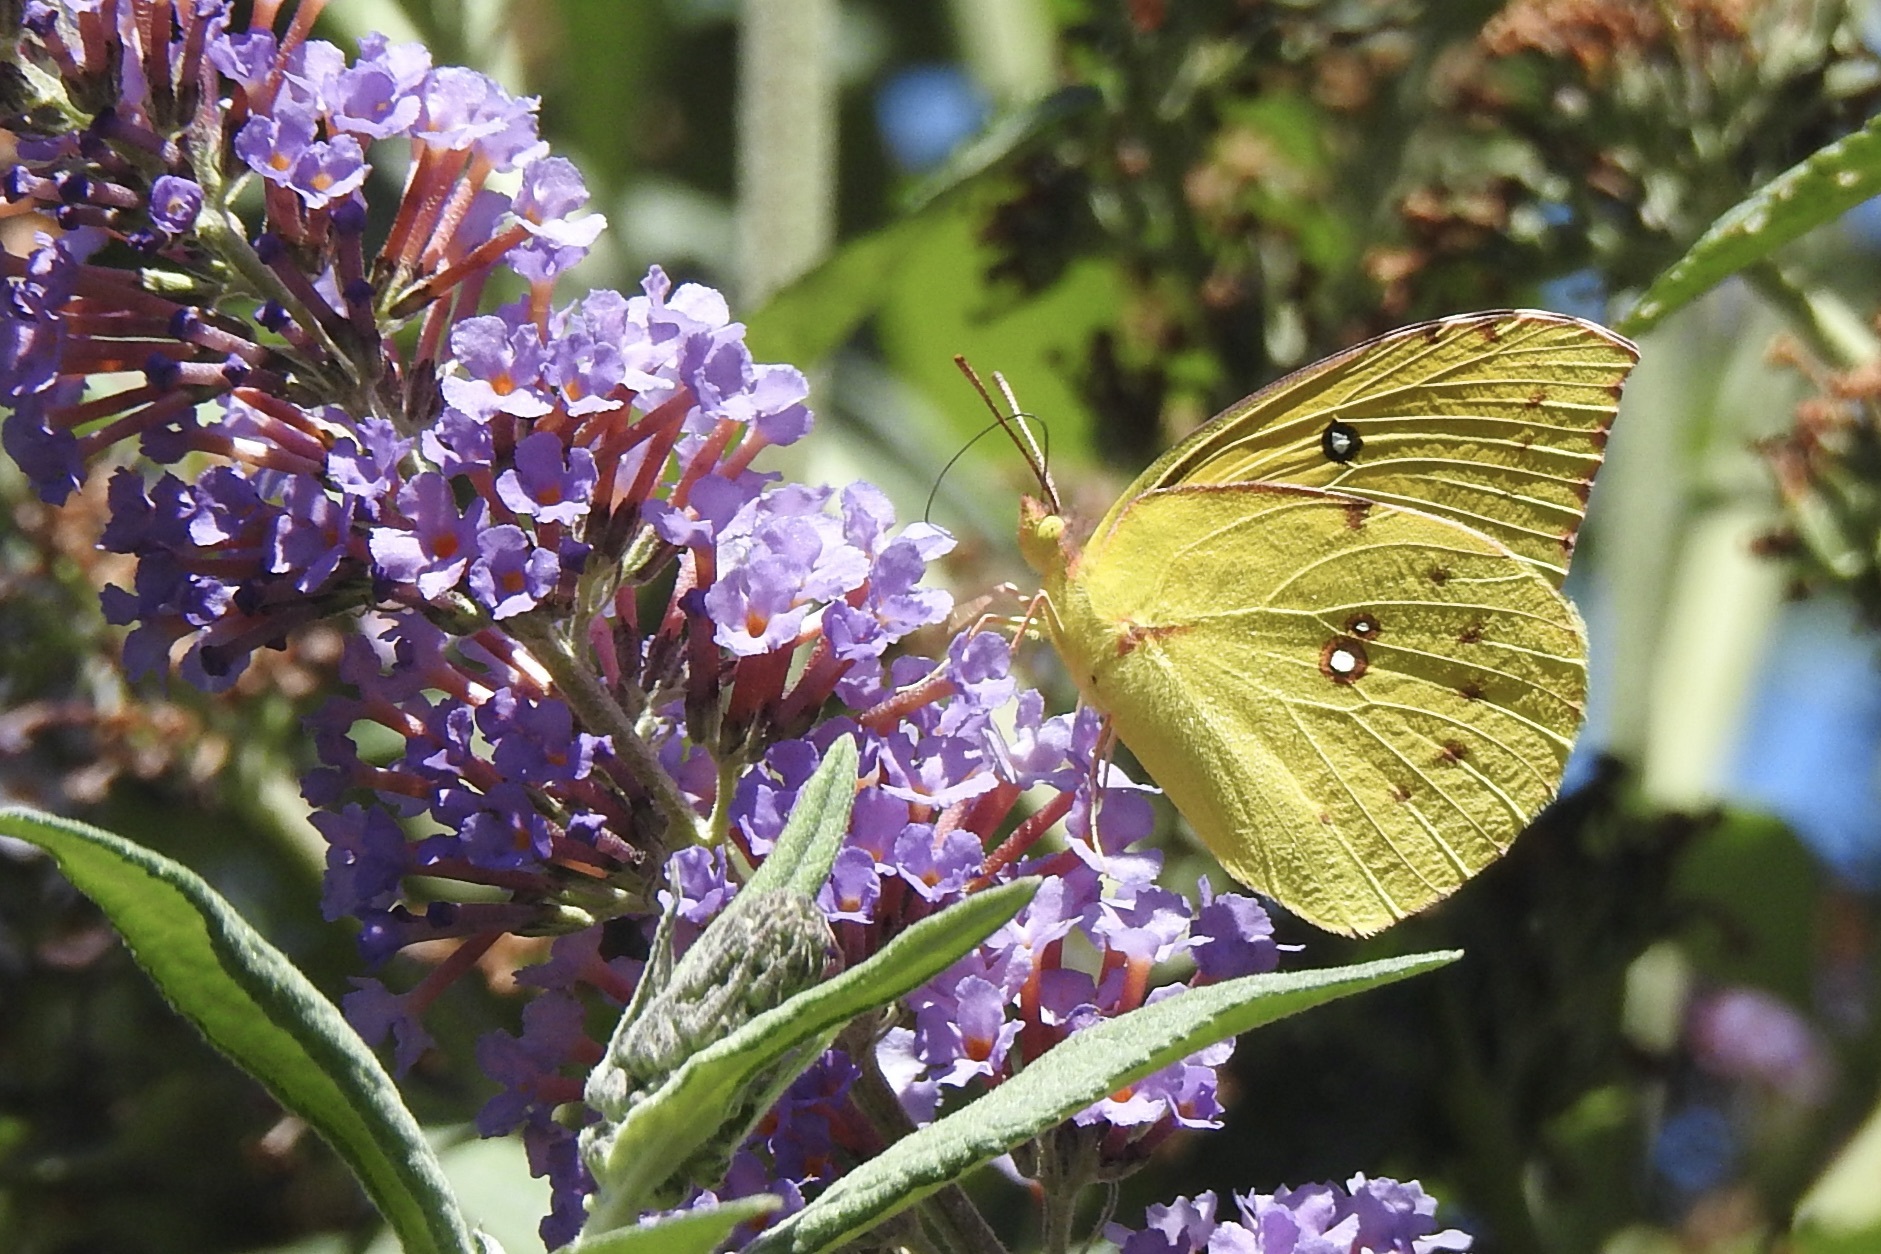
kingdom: Animalia
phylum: Arthropoda
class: Insecta
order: Lepidoptera
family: Pieridae
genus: Zerene
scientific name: Zerene eurydice
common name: California dogface
